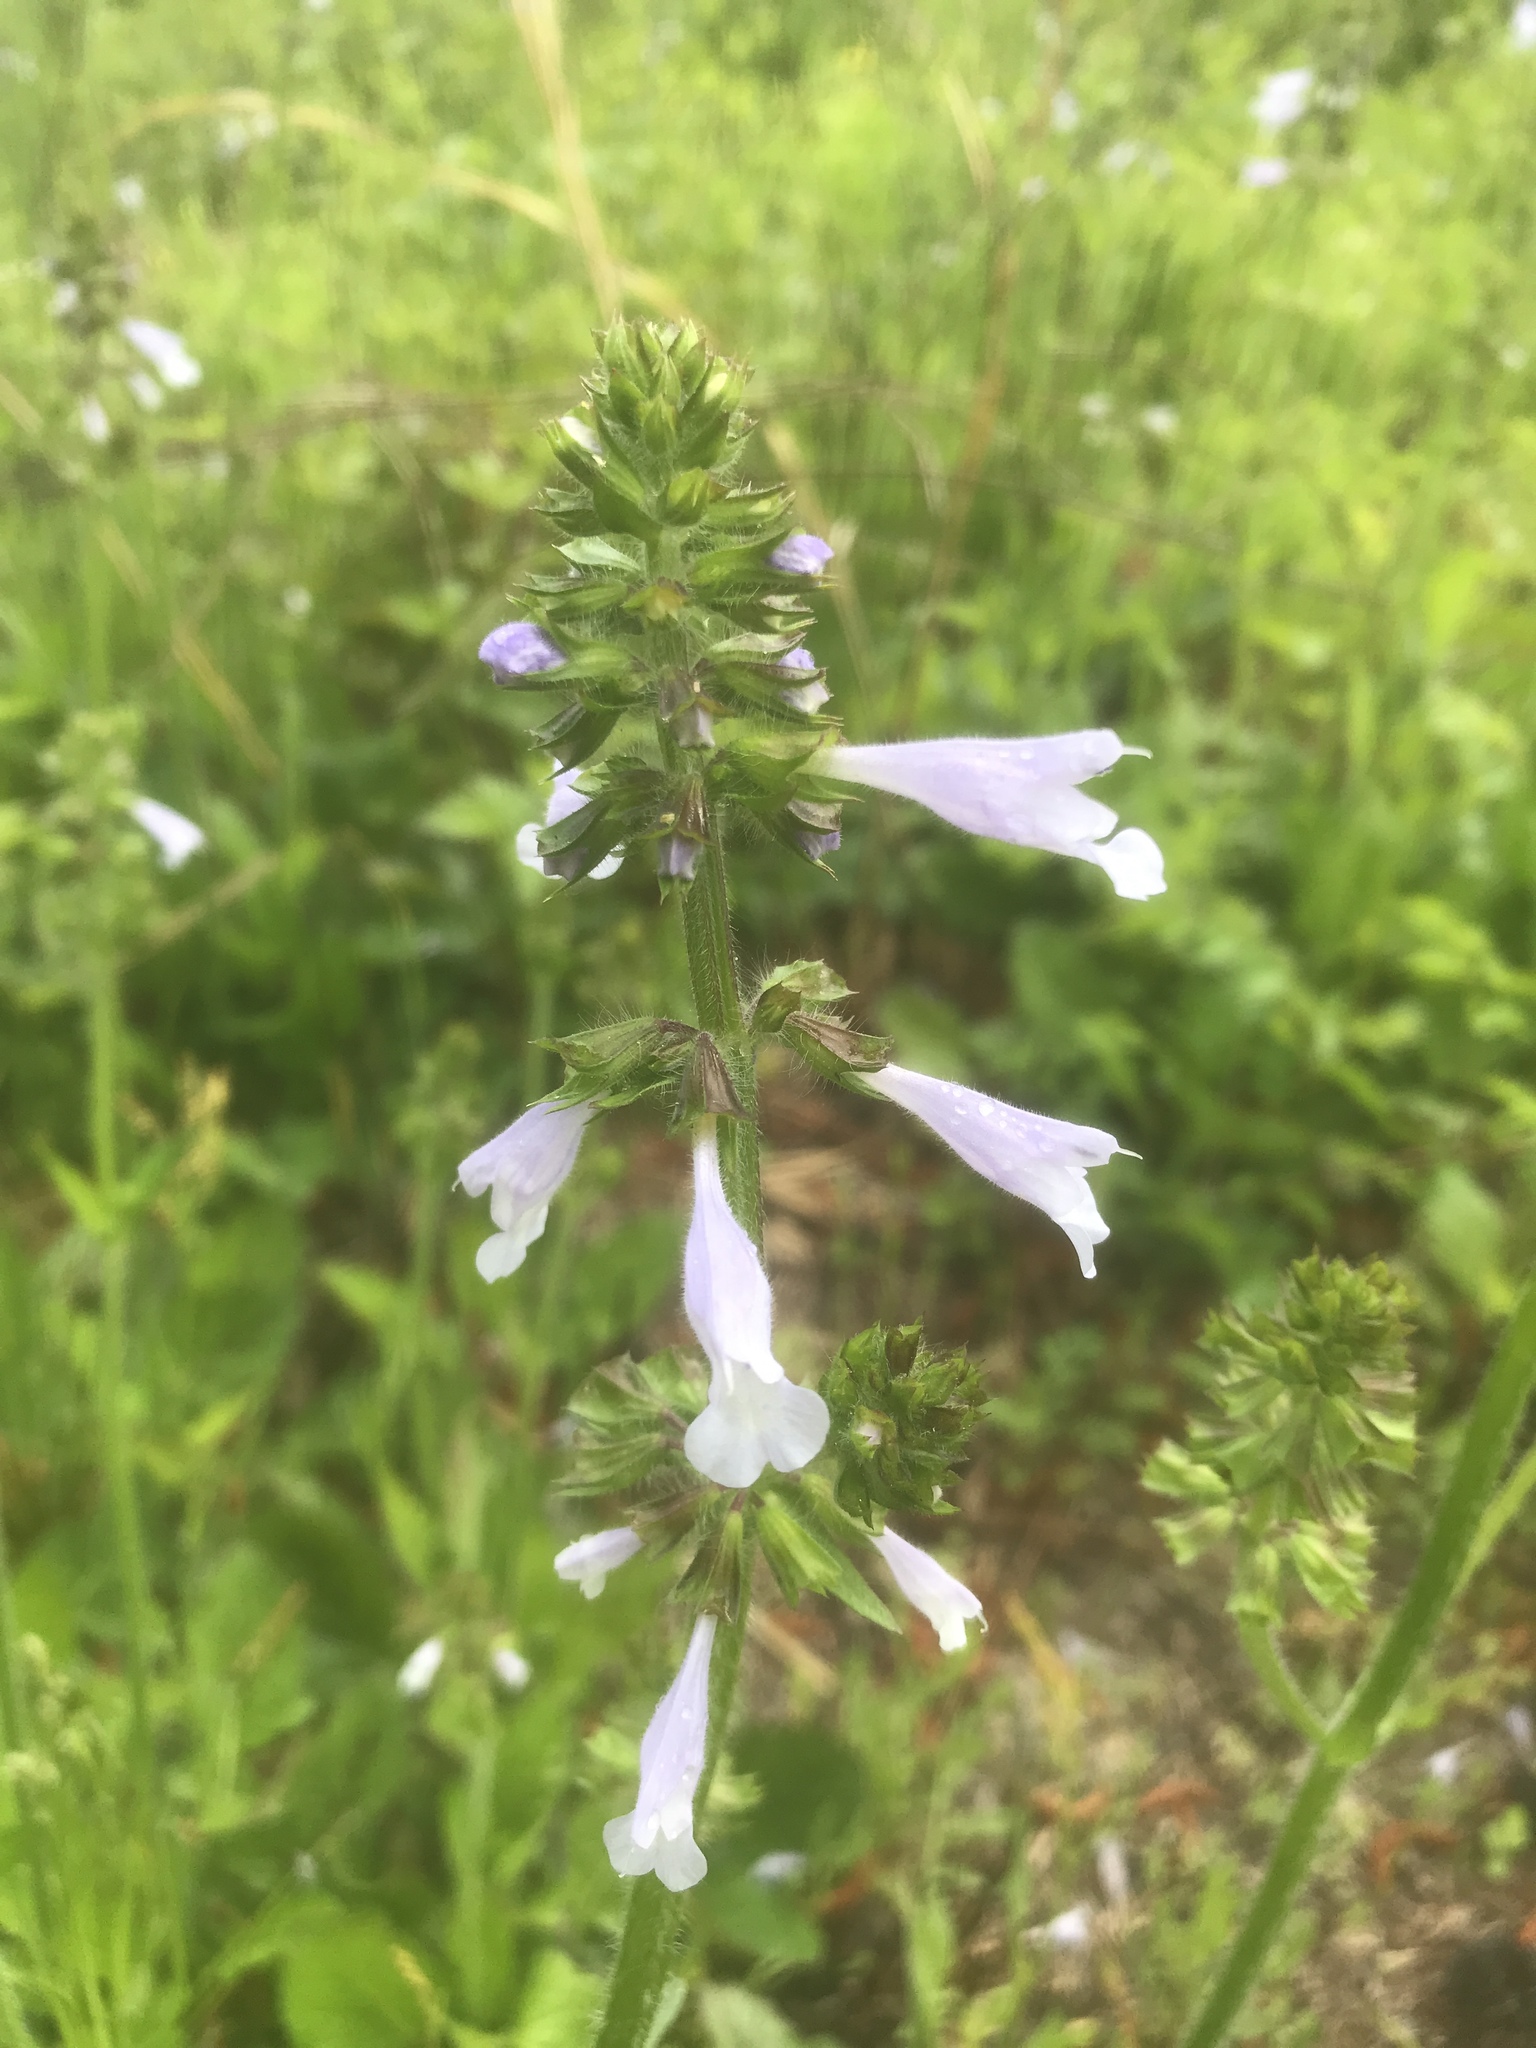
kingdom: Plantae
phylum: Tracheophyta
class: Magnoliopsida
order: Lamiales
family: Lamiaceae
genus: Salvia
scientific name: Salvia lyrata
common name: Cancerweed
